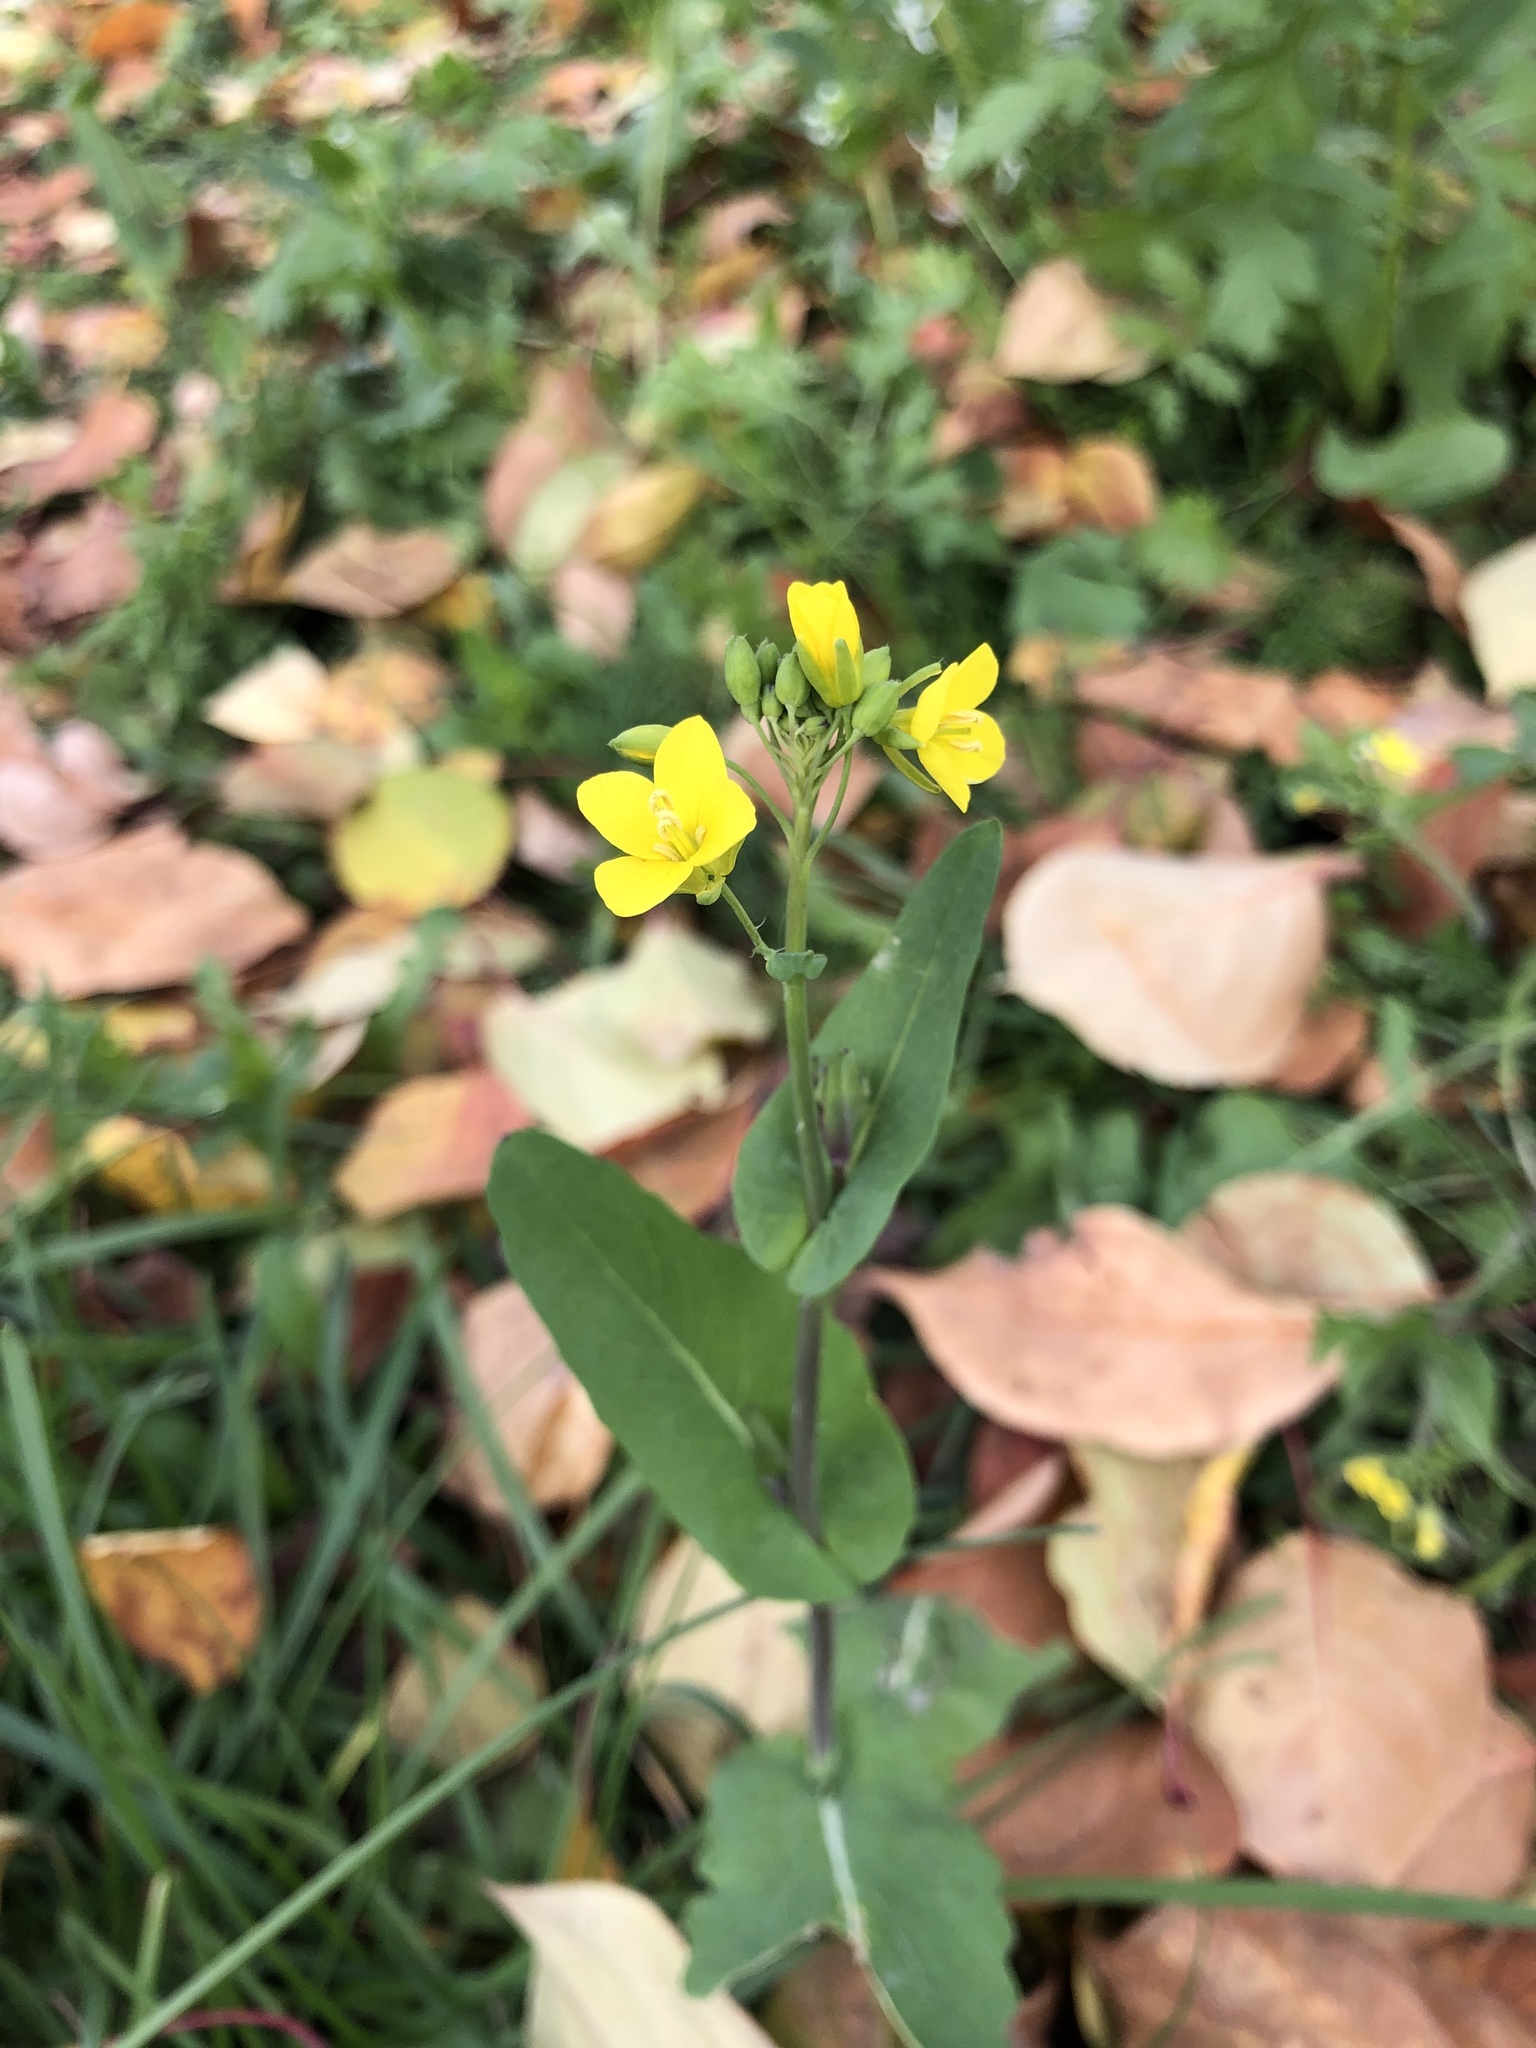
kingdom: Plantae
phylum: Tracheophyta
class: Magnoliopsida
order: Brassicales
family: Brassicaceae
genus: Brassica
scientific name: Brassica rapa
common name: Field mustard
